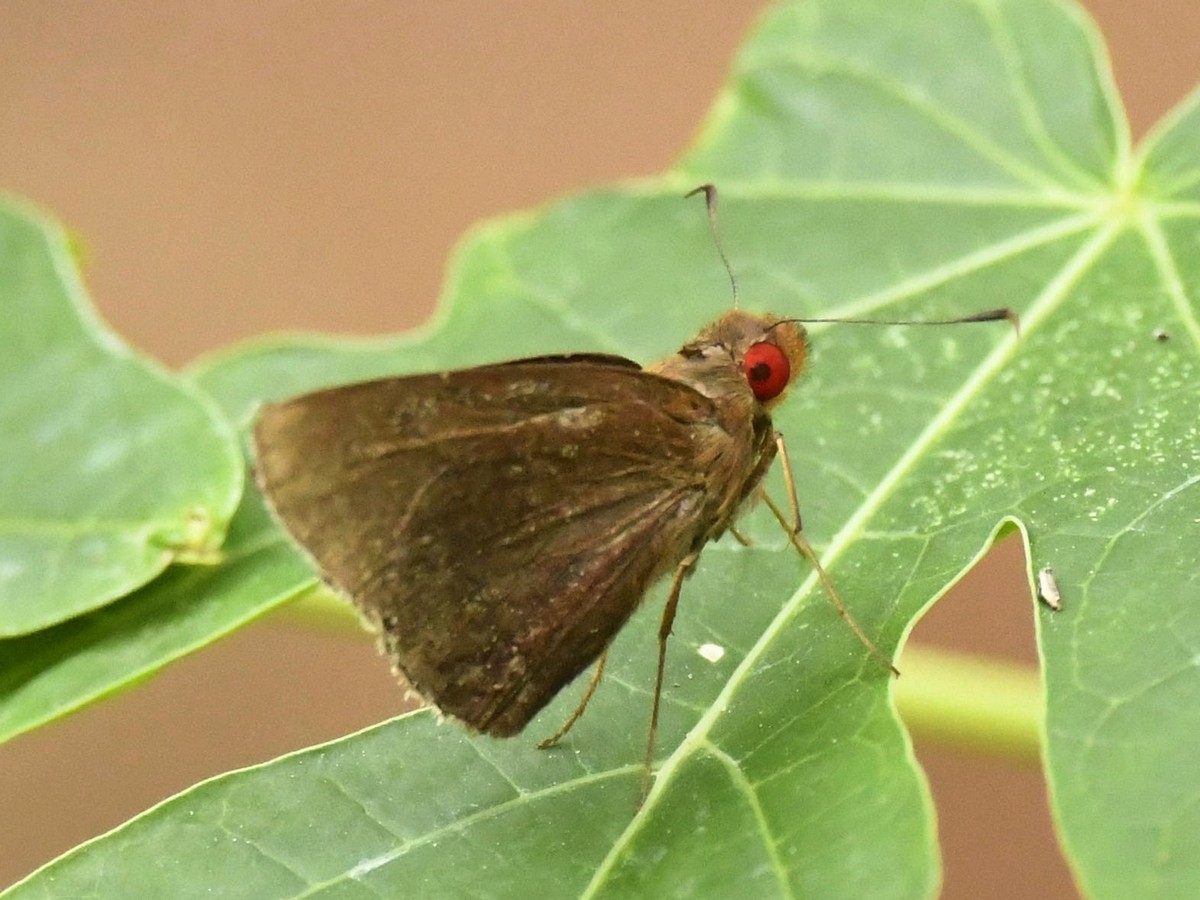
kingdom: Animalia
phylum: Arthropoda
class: Insecta
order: Lepidoptera
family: Hesperiidae
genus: Matapa
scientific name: Matapa aria
